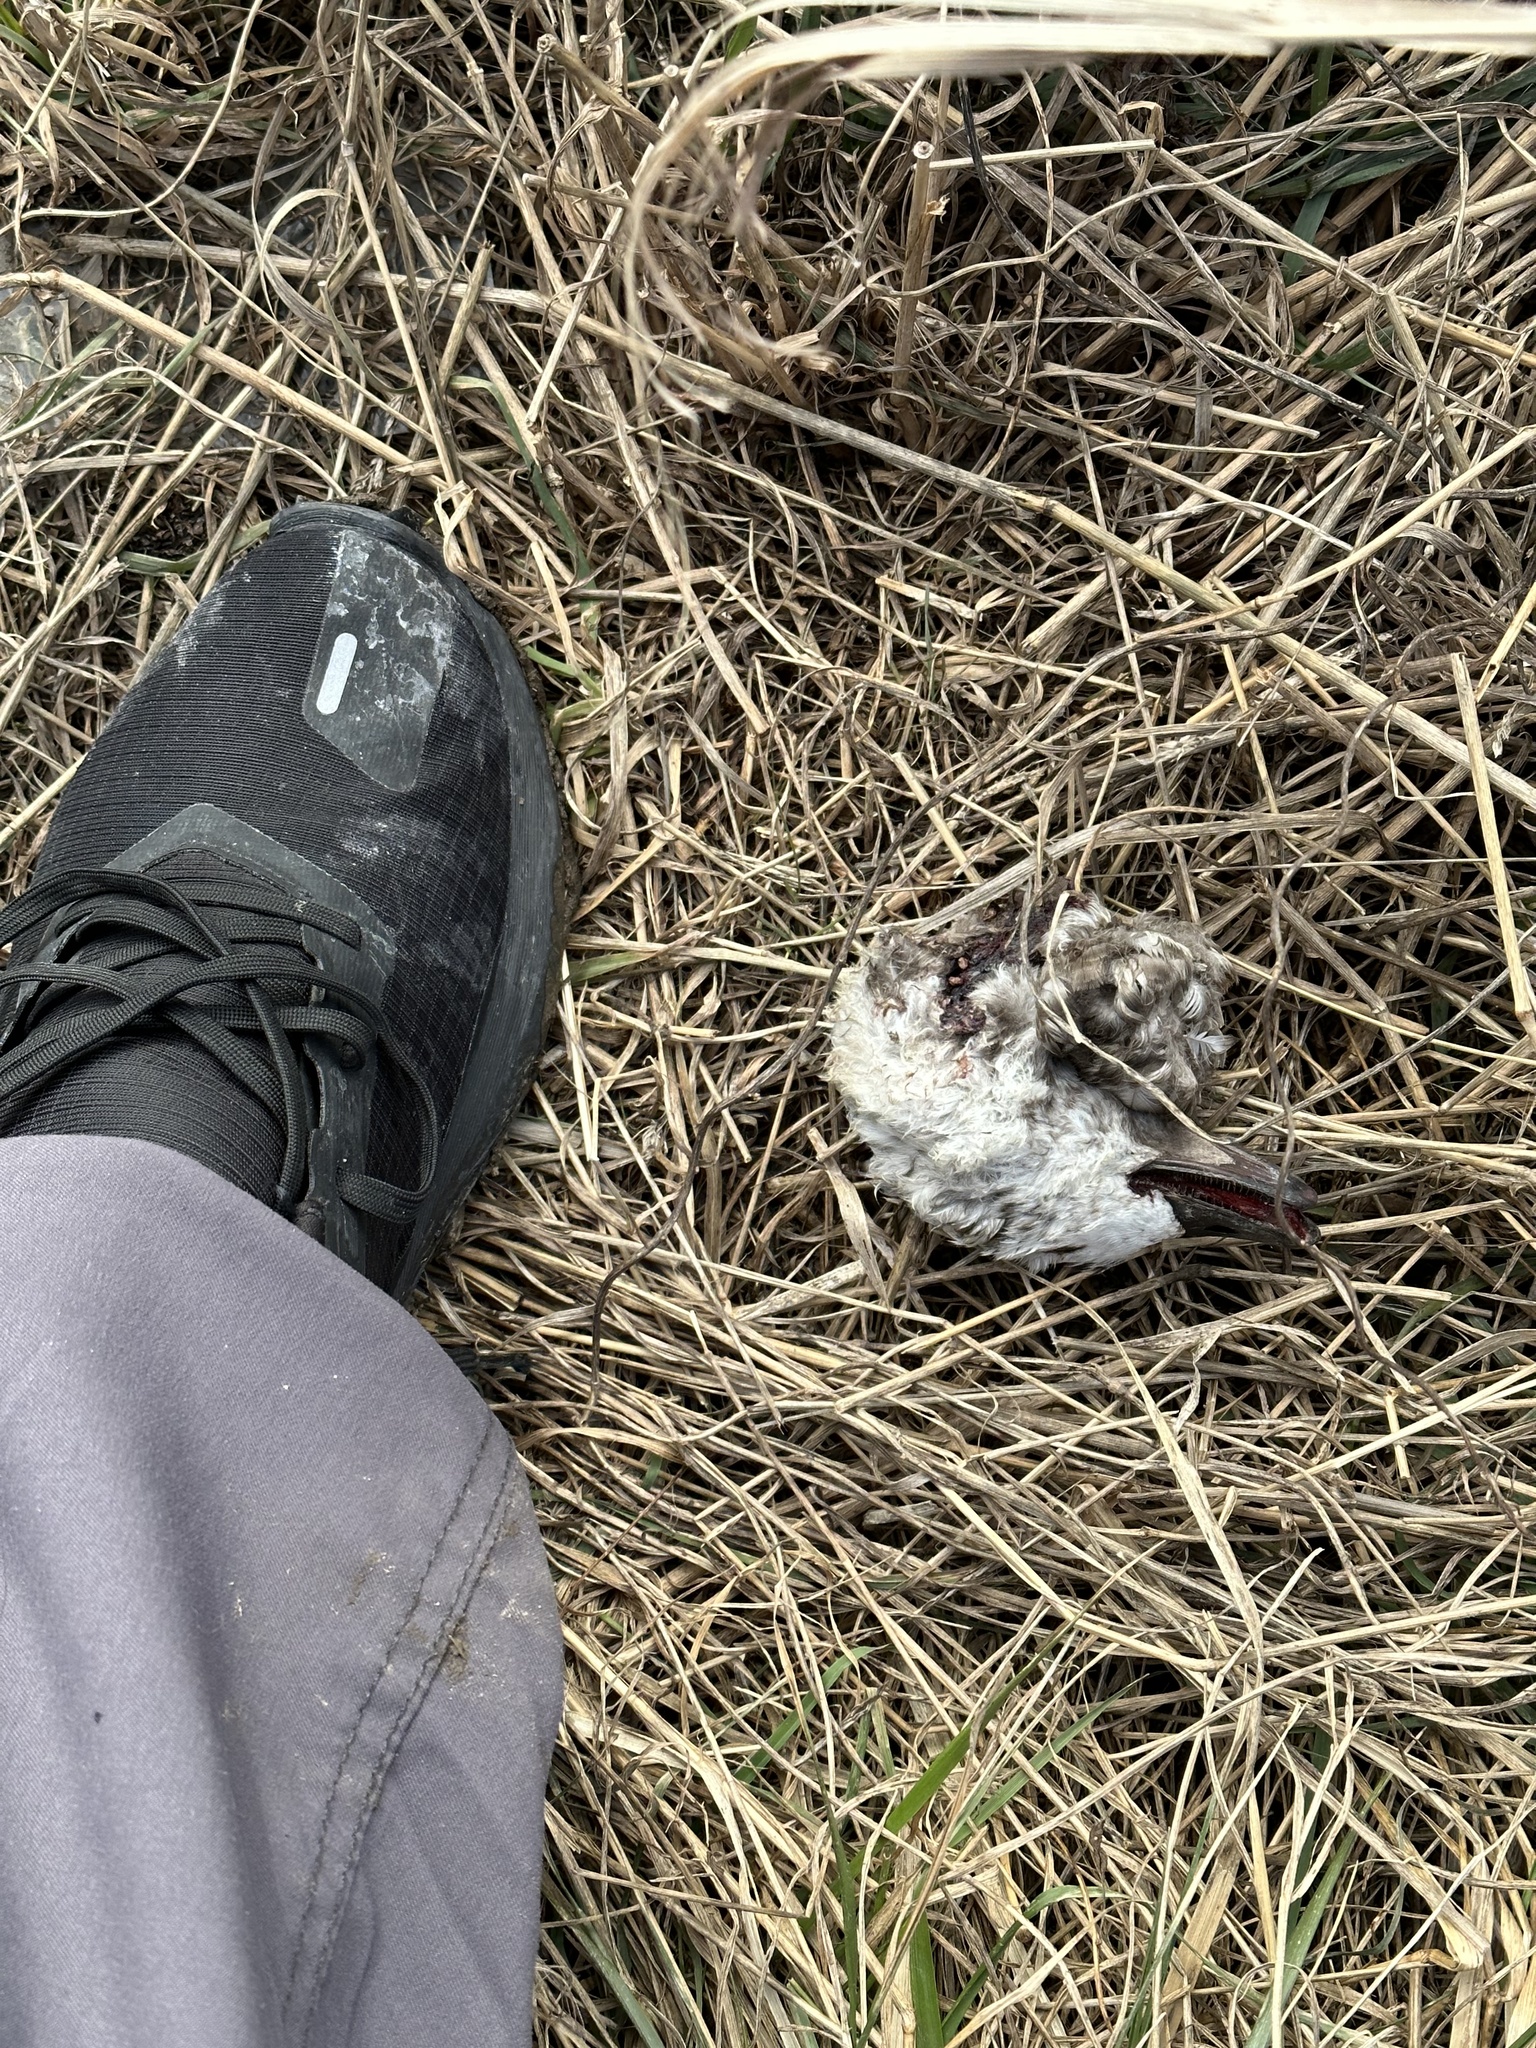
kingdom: Animalia
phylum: Chordata
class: Aves
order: Anseriformes
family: Anatidae
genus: Clangula
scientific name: Clangula hyemalis
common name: Long-tailed duck
